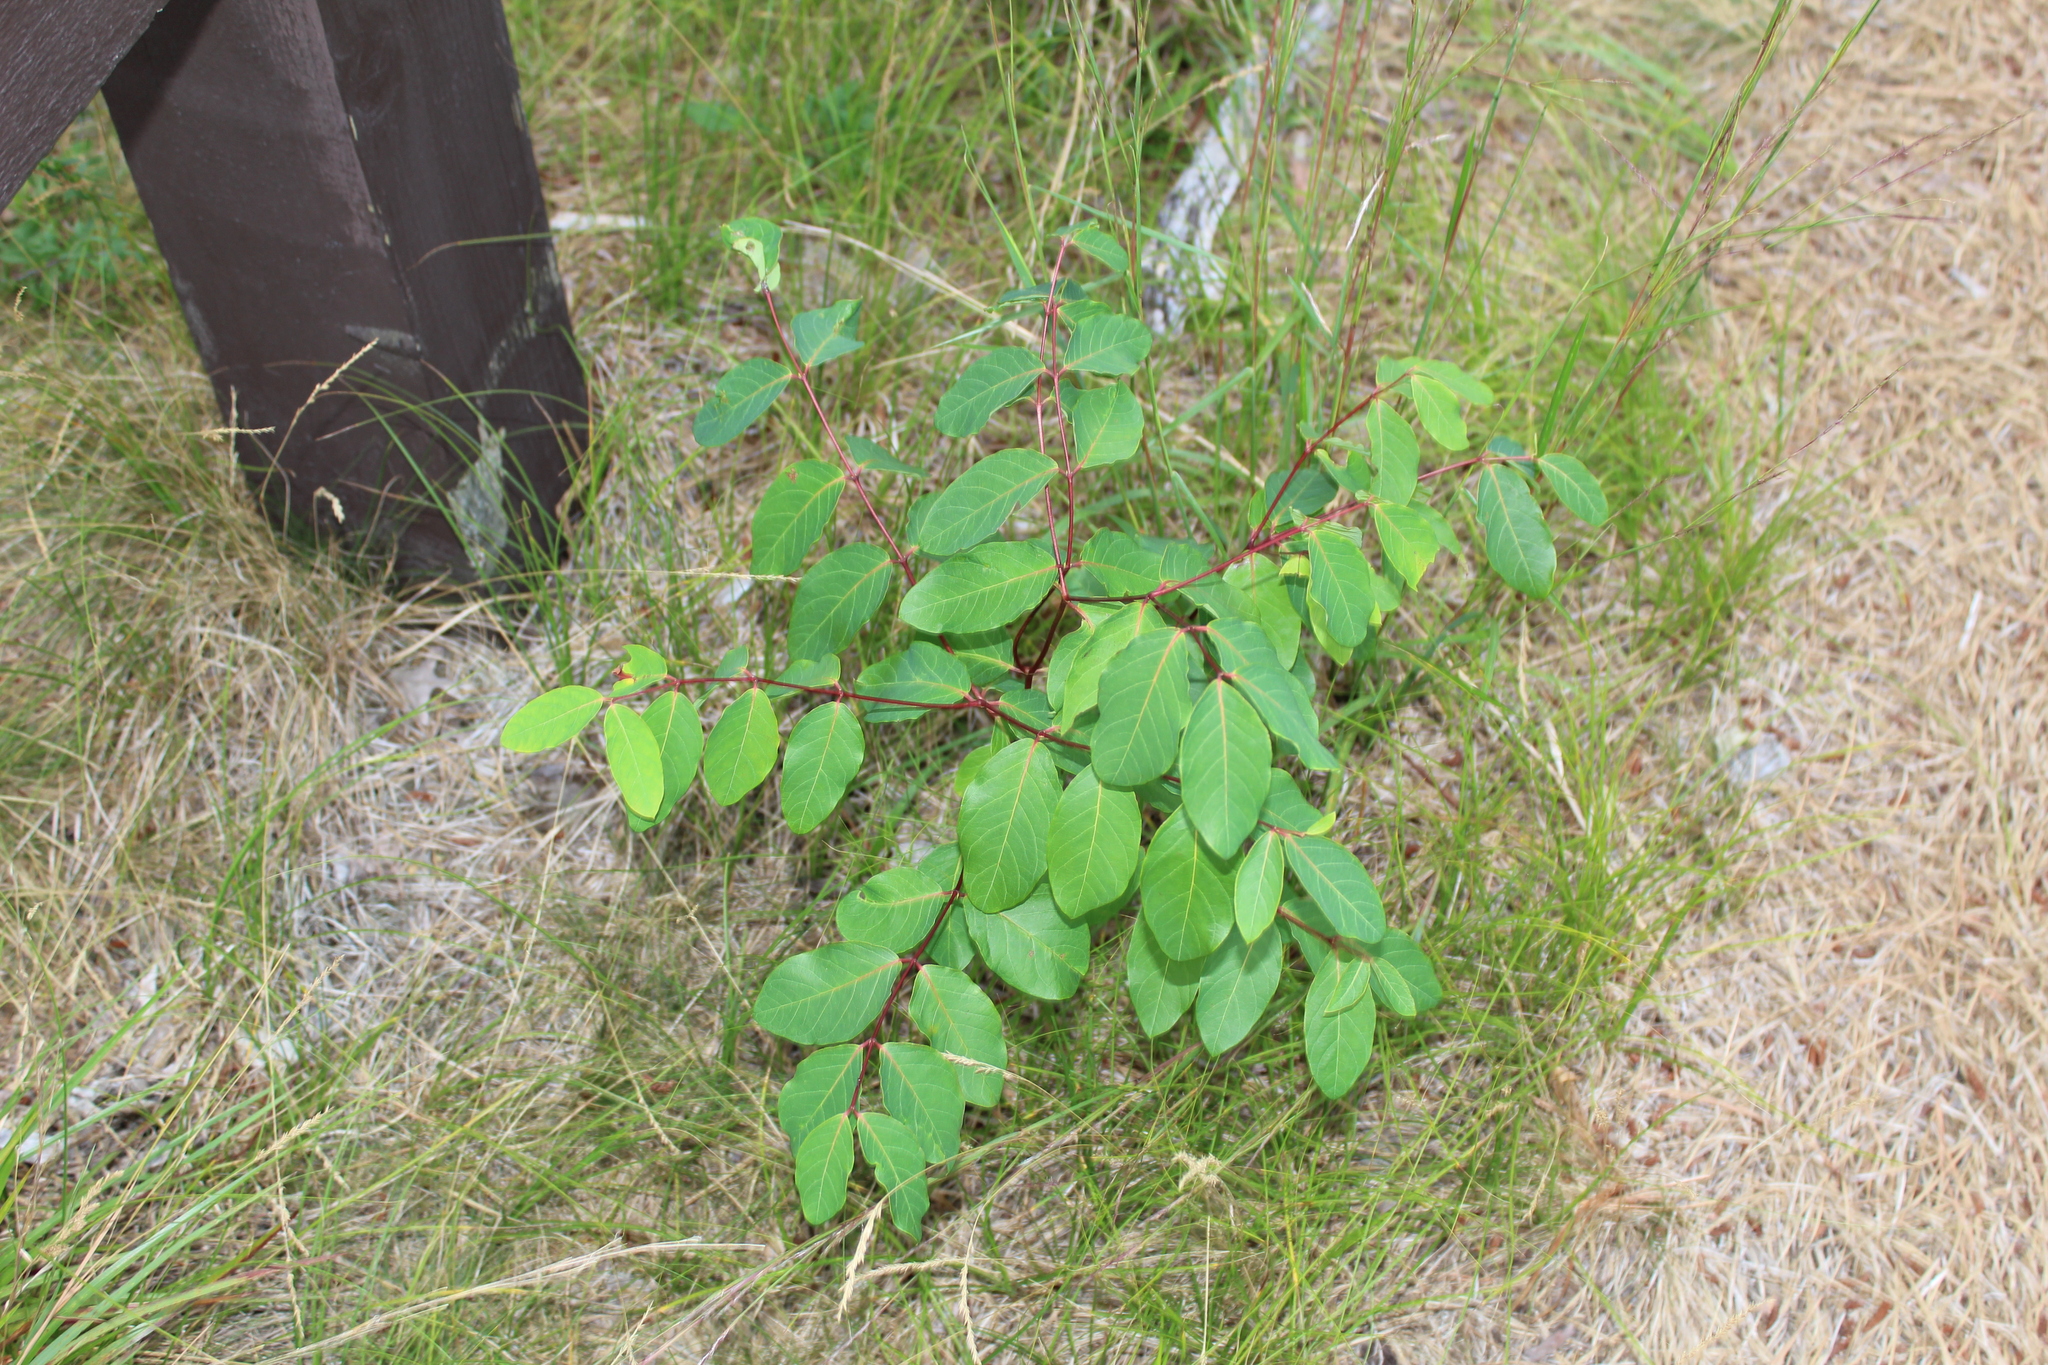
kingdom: Plantae
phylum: Tracheophyta
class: Magnoliopsida
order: Gentianales
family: Apocynaceae
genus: Apocynum
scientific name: Apocynum androsaemifolium
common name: Spreading dogbane
